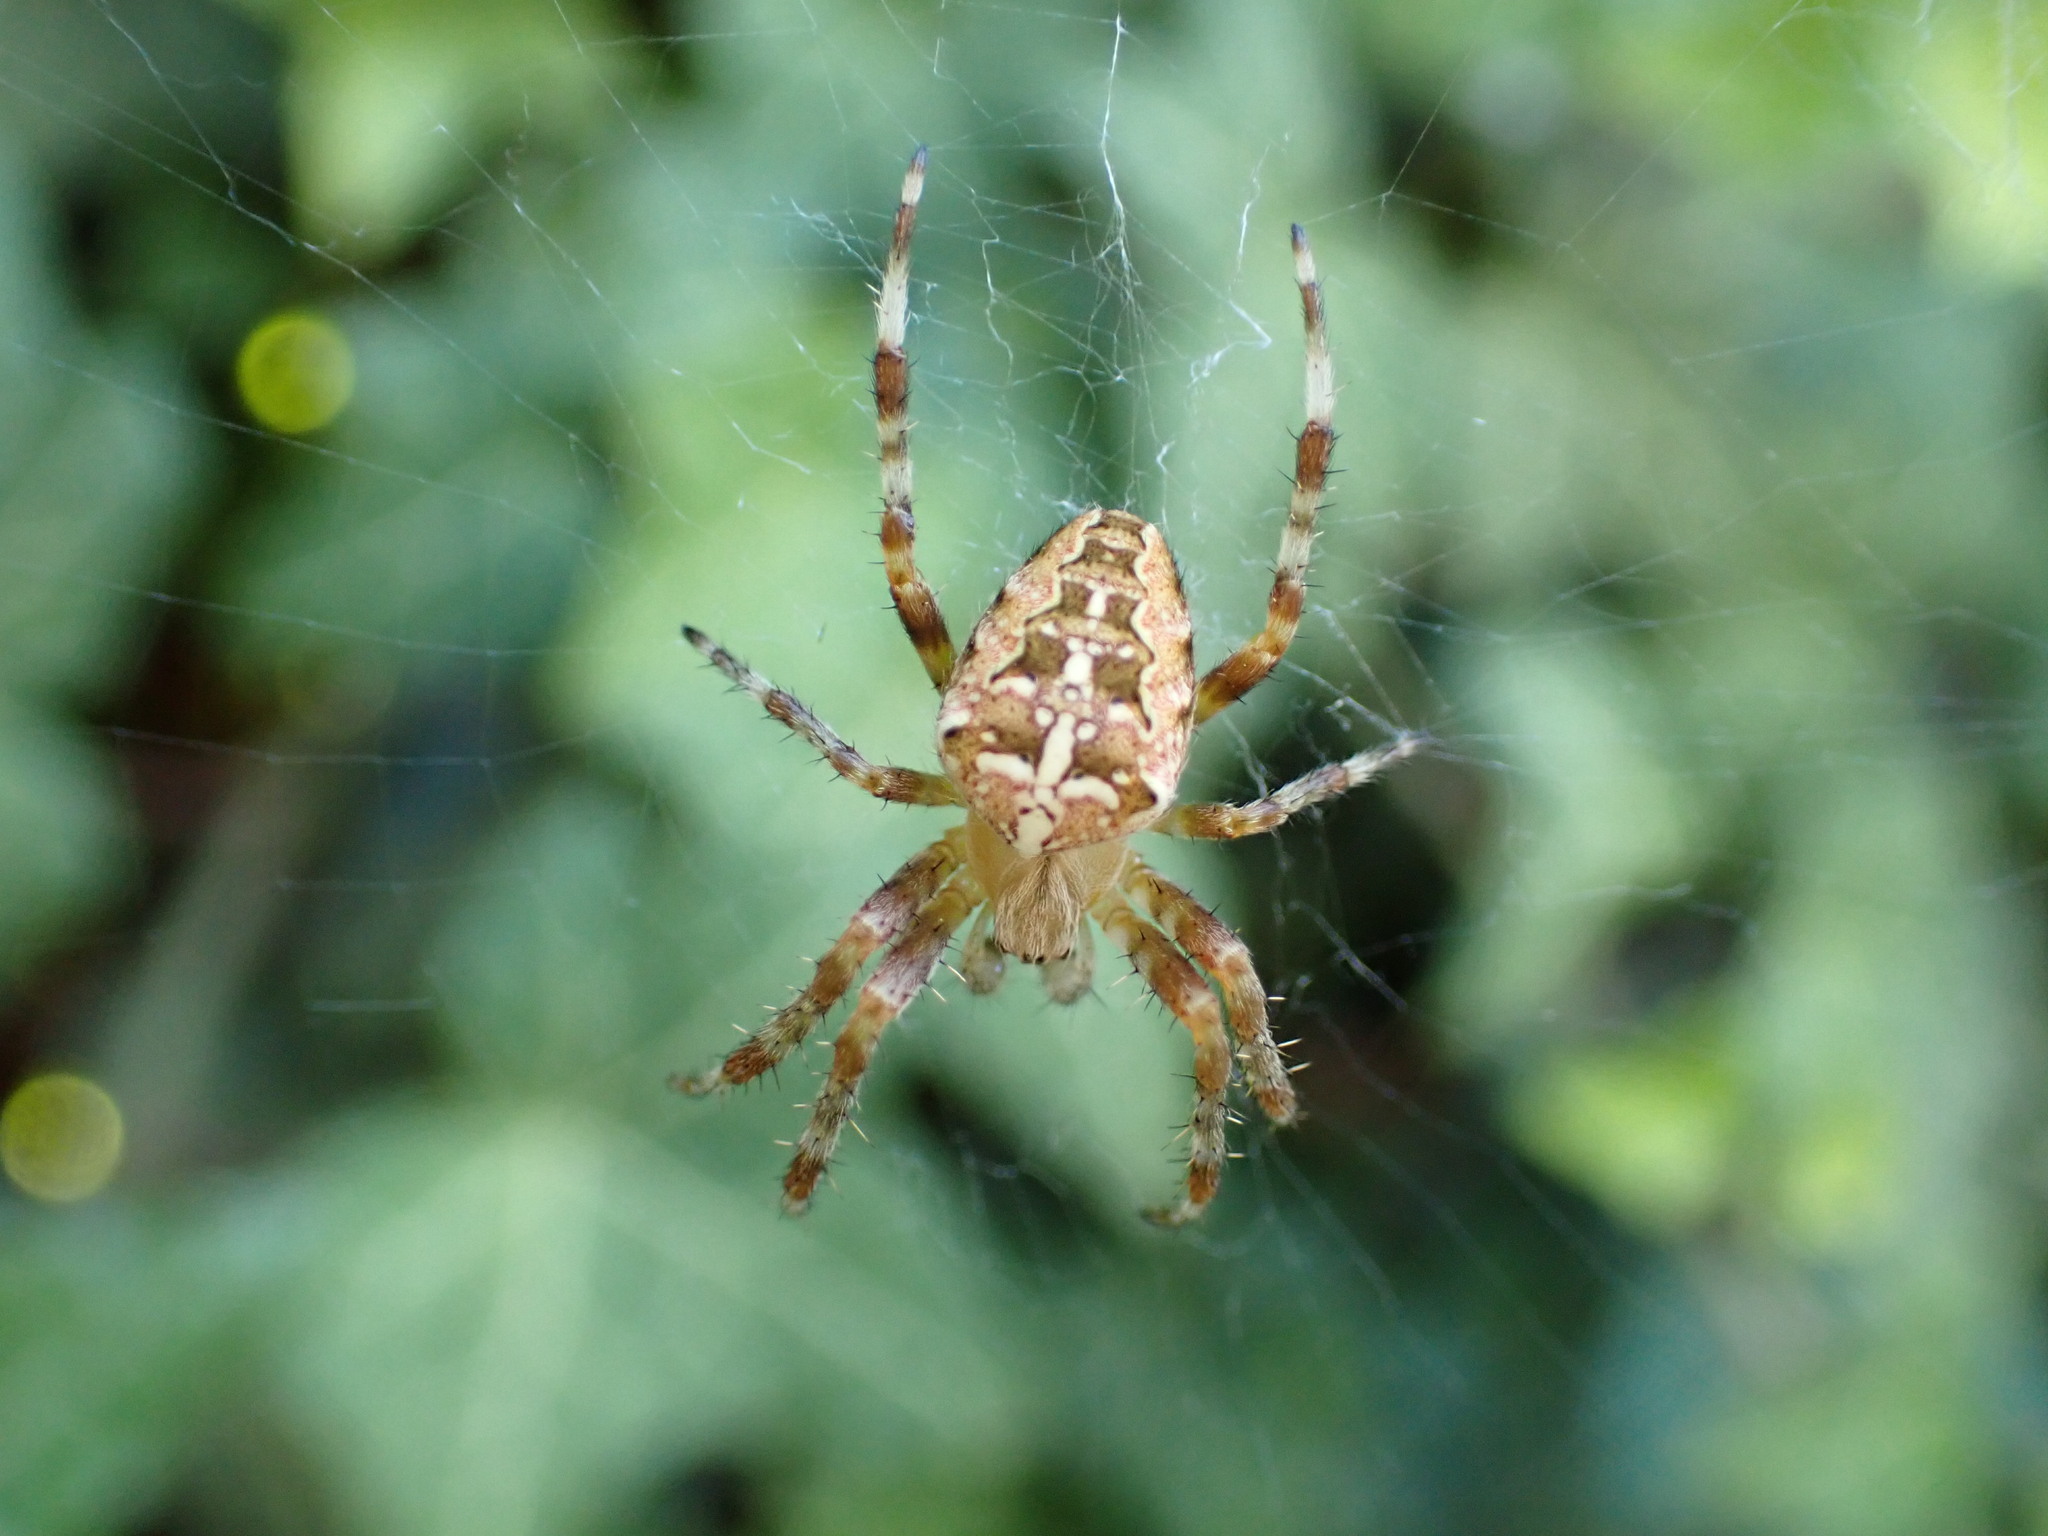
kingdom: Animalia
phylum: Arthropoda
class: Arachnida
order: Araneae
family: Araneidae
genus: Araneus
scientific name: Araneus diadematus
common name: Cross orbweaver
